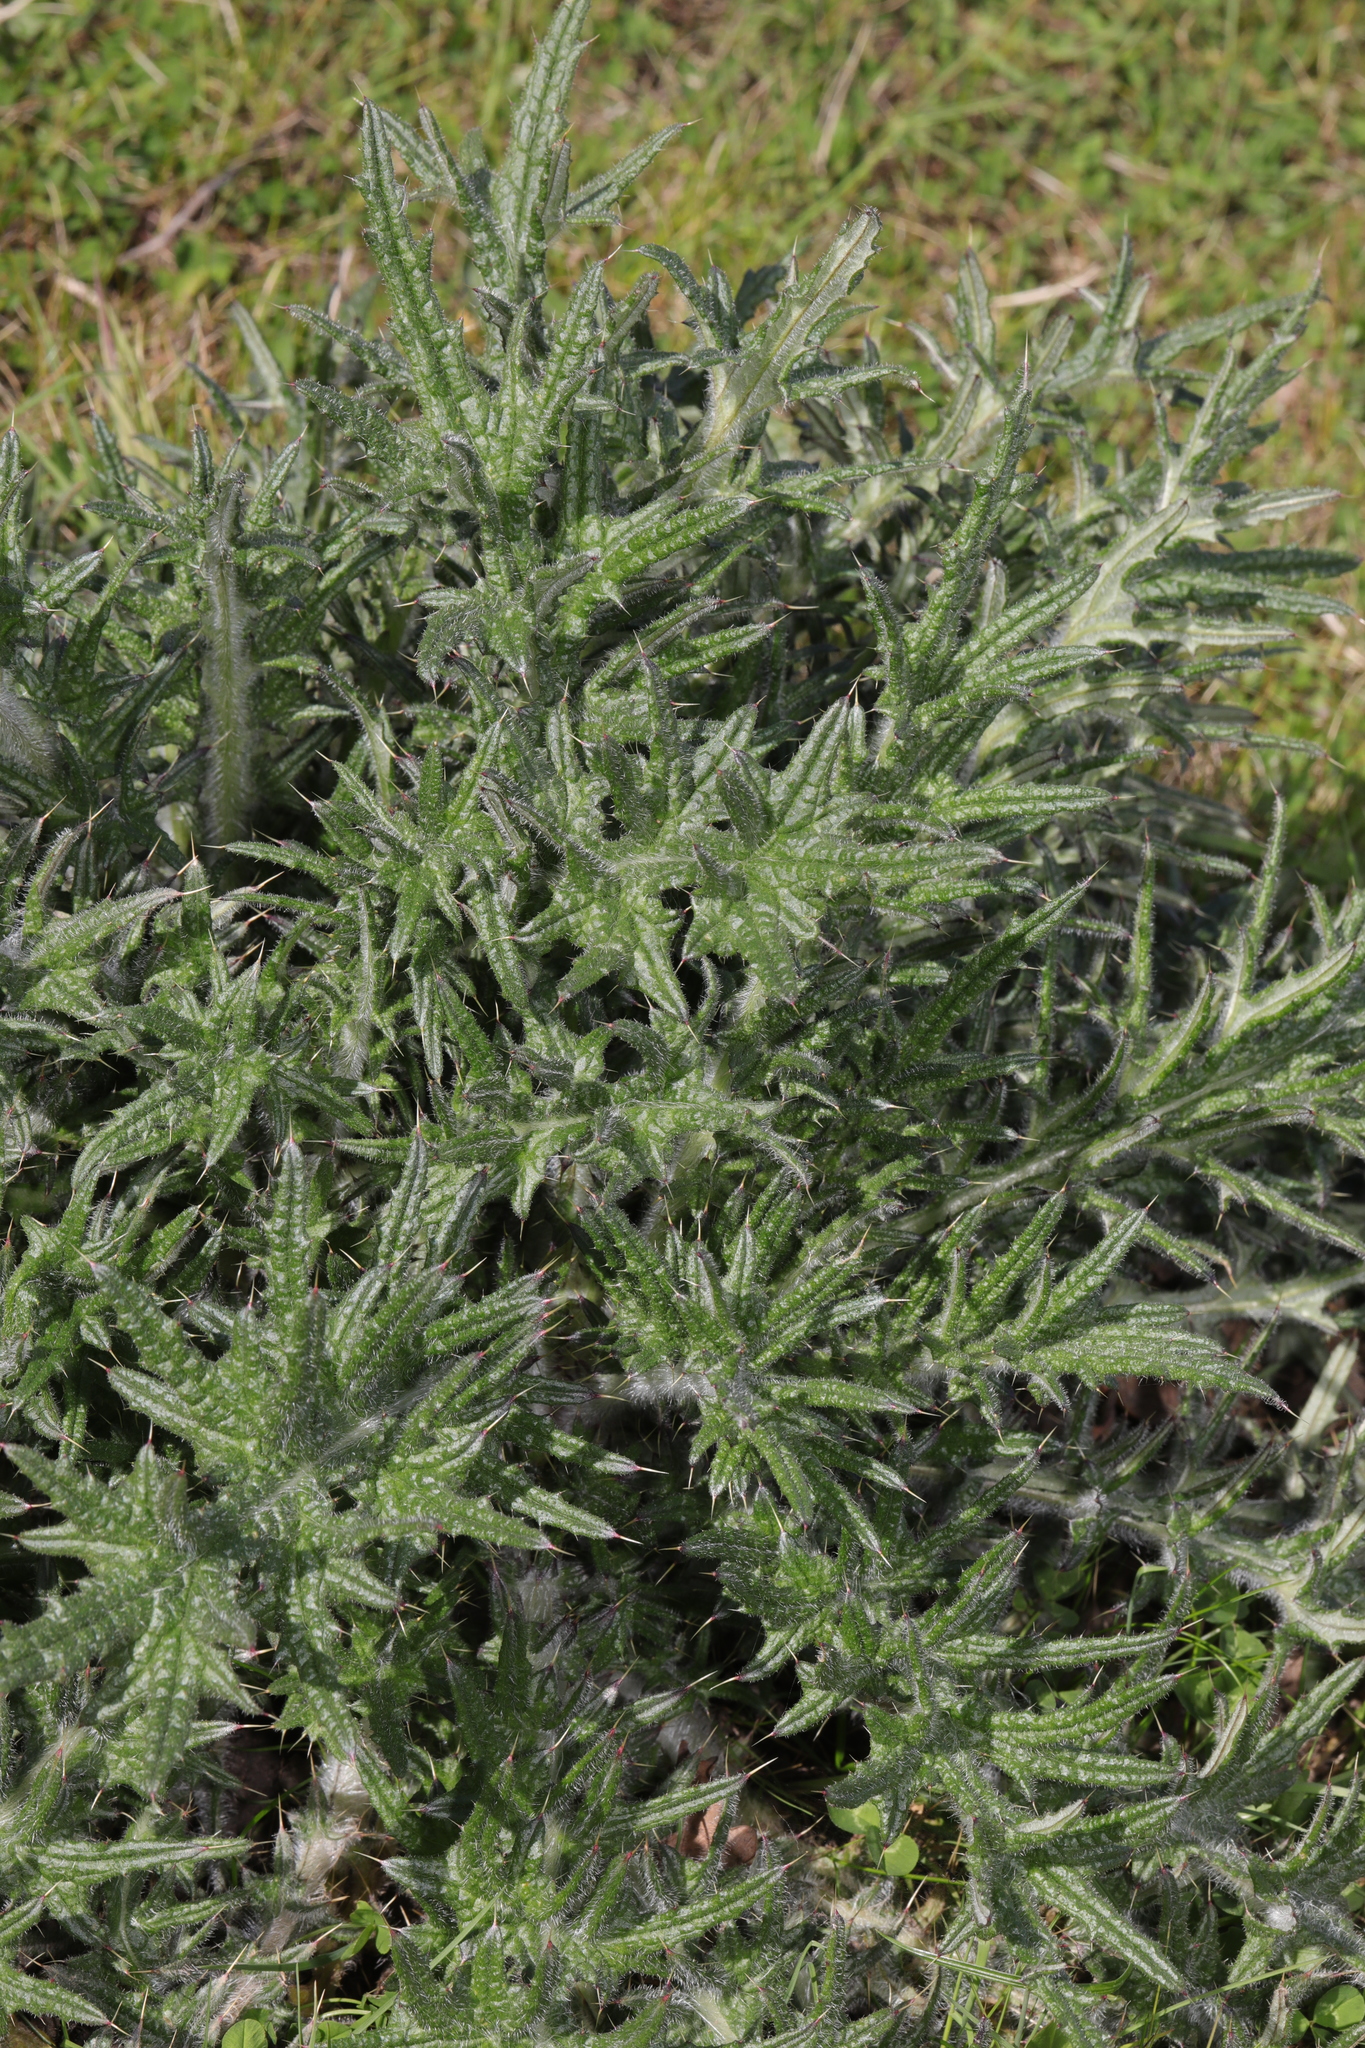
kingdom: Plantae
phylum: Tracheophyta
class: Magnoliopsida
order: Asterales
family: Asteraceae
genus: Cirsium
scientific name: Cirsium vulgare
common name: Bull thistle
